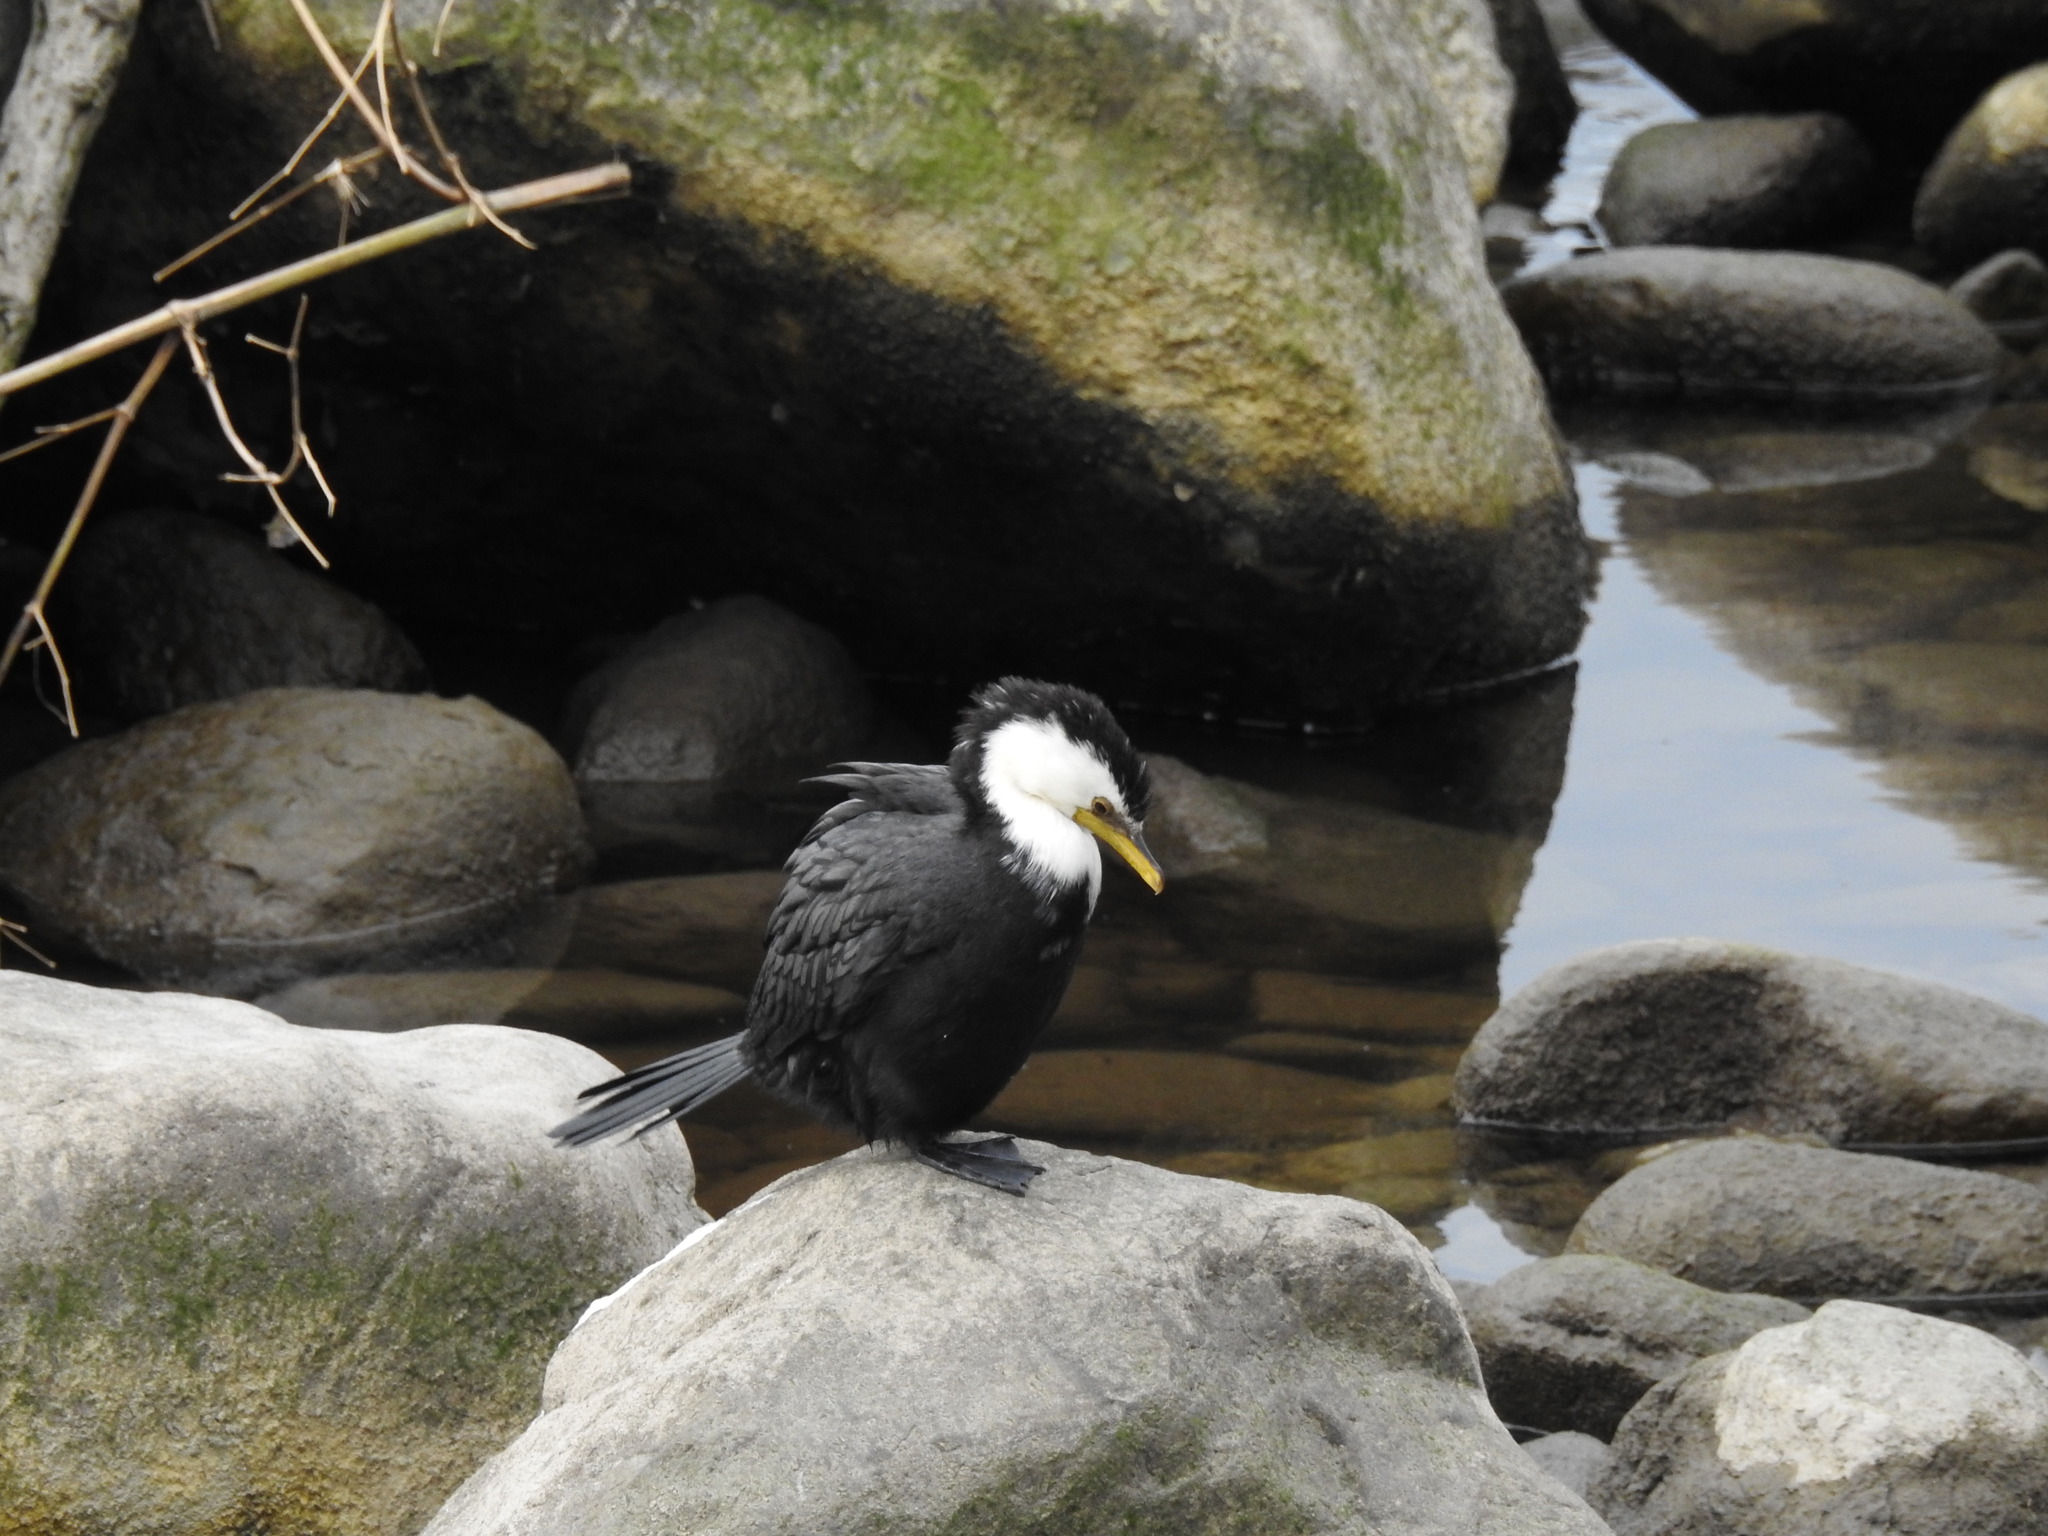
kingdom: Animalia
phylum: Chordata
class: Aves
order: Suliformes
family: Phalacrocoracidae
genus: Microcarbo
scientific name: Microcarbo melanoleucos
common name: Little pied cormorant
